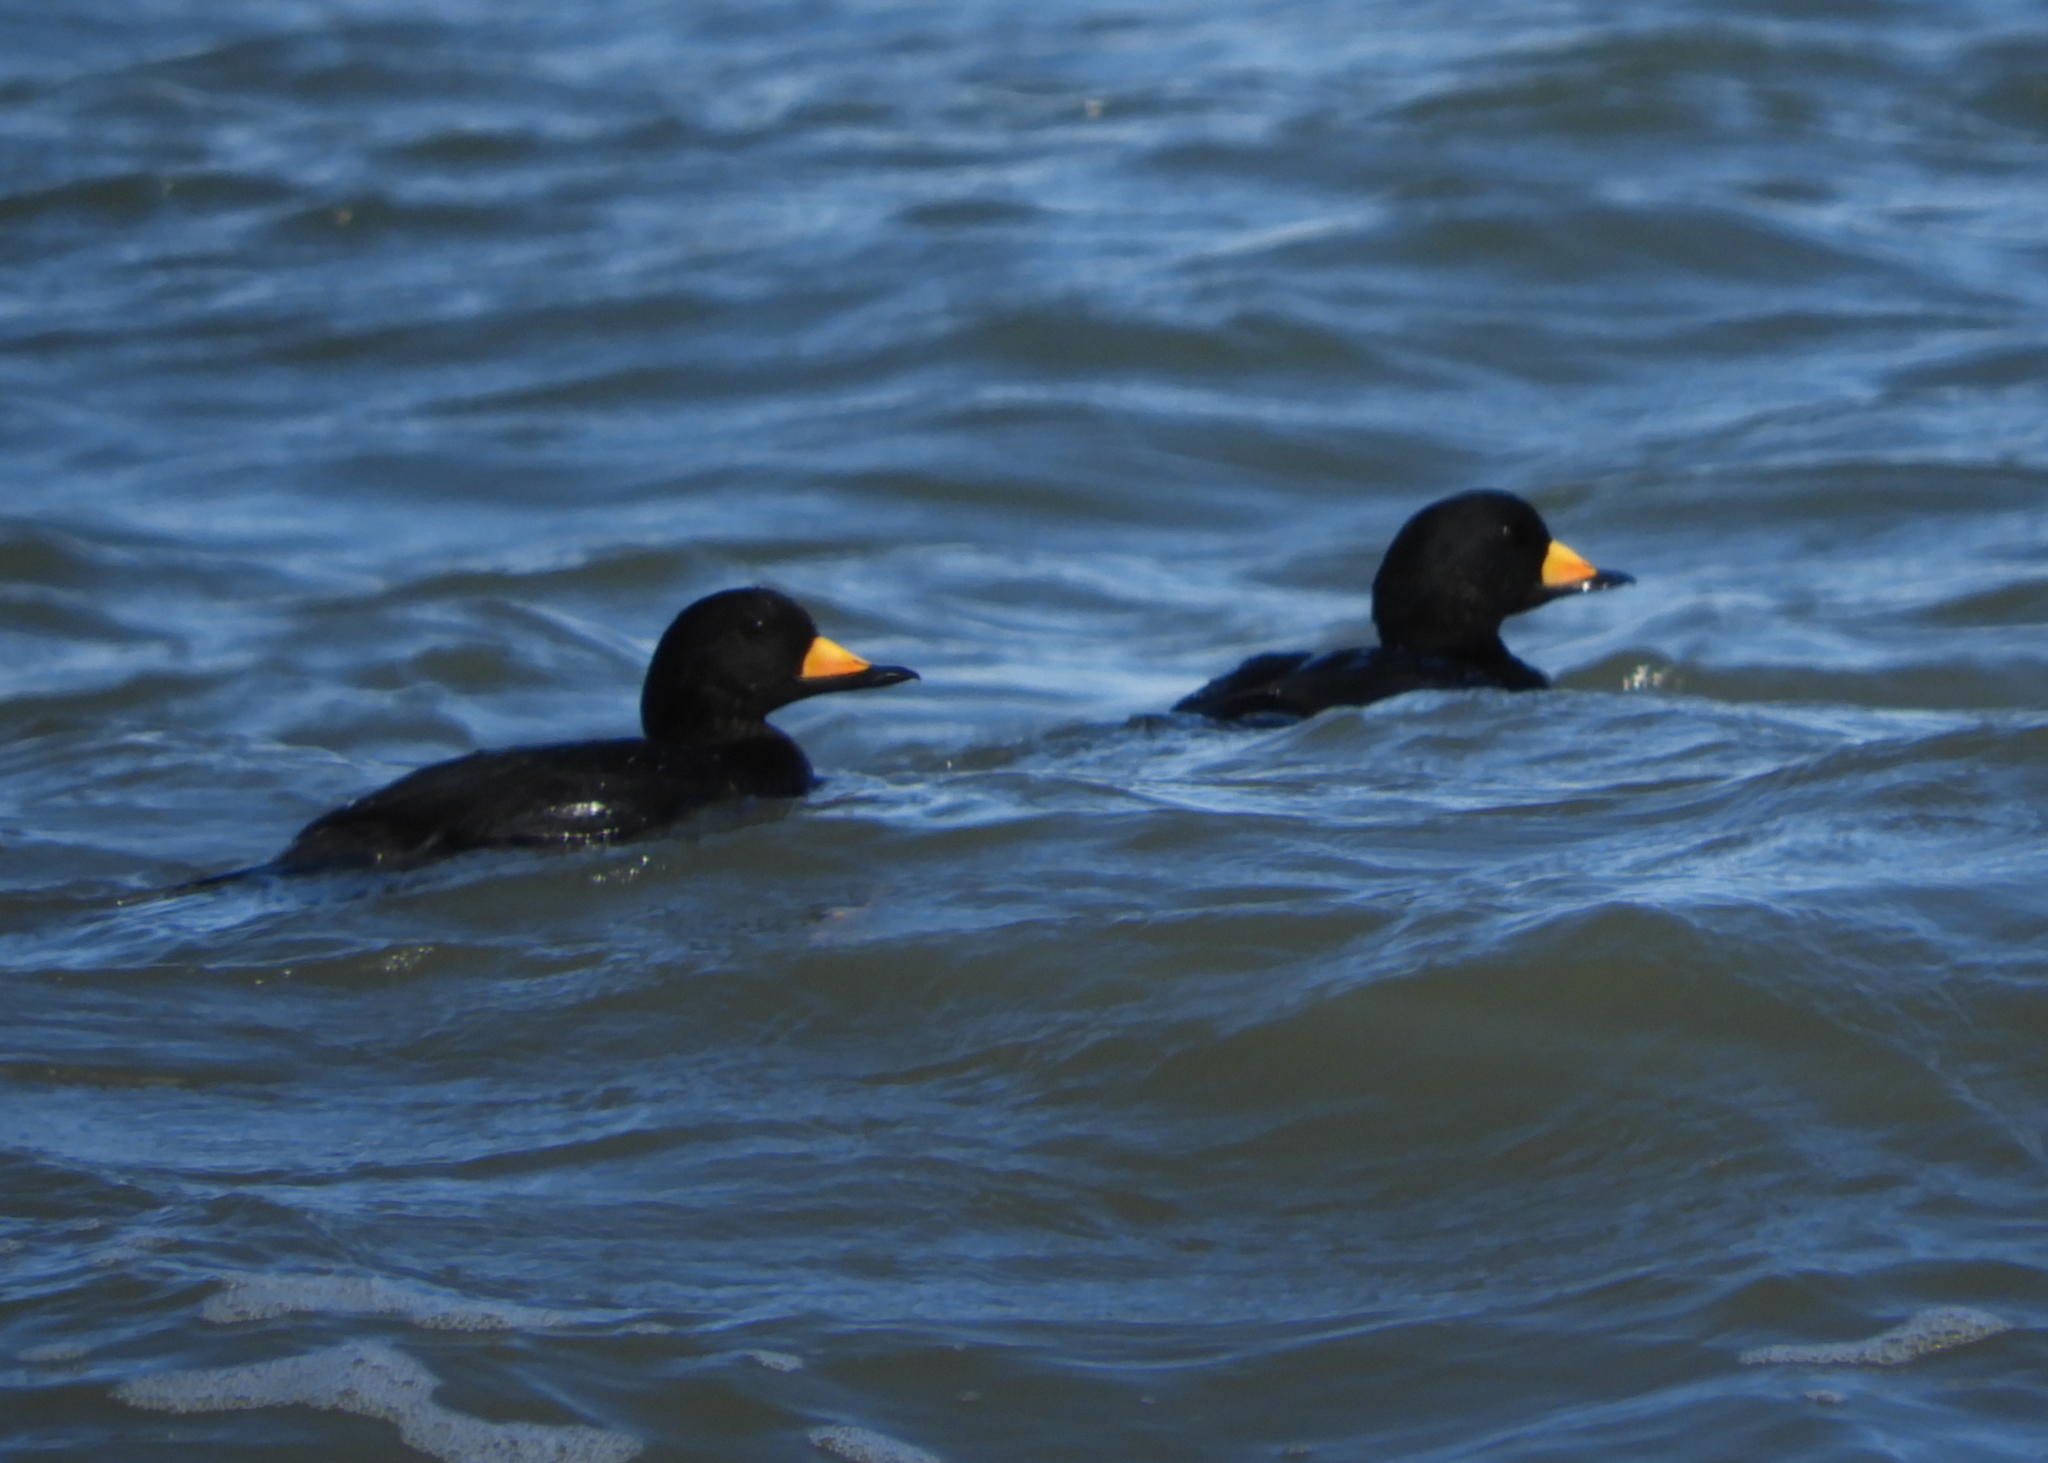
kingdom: Animalia
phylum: Chordata
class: Aves
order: Anseriformes
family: Anatidae
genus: Melanitta
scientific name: Melanitta americana
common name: Black scoter
